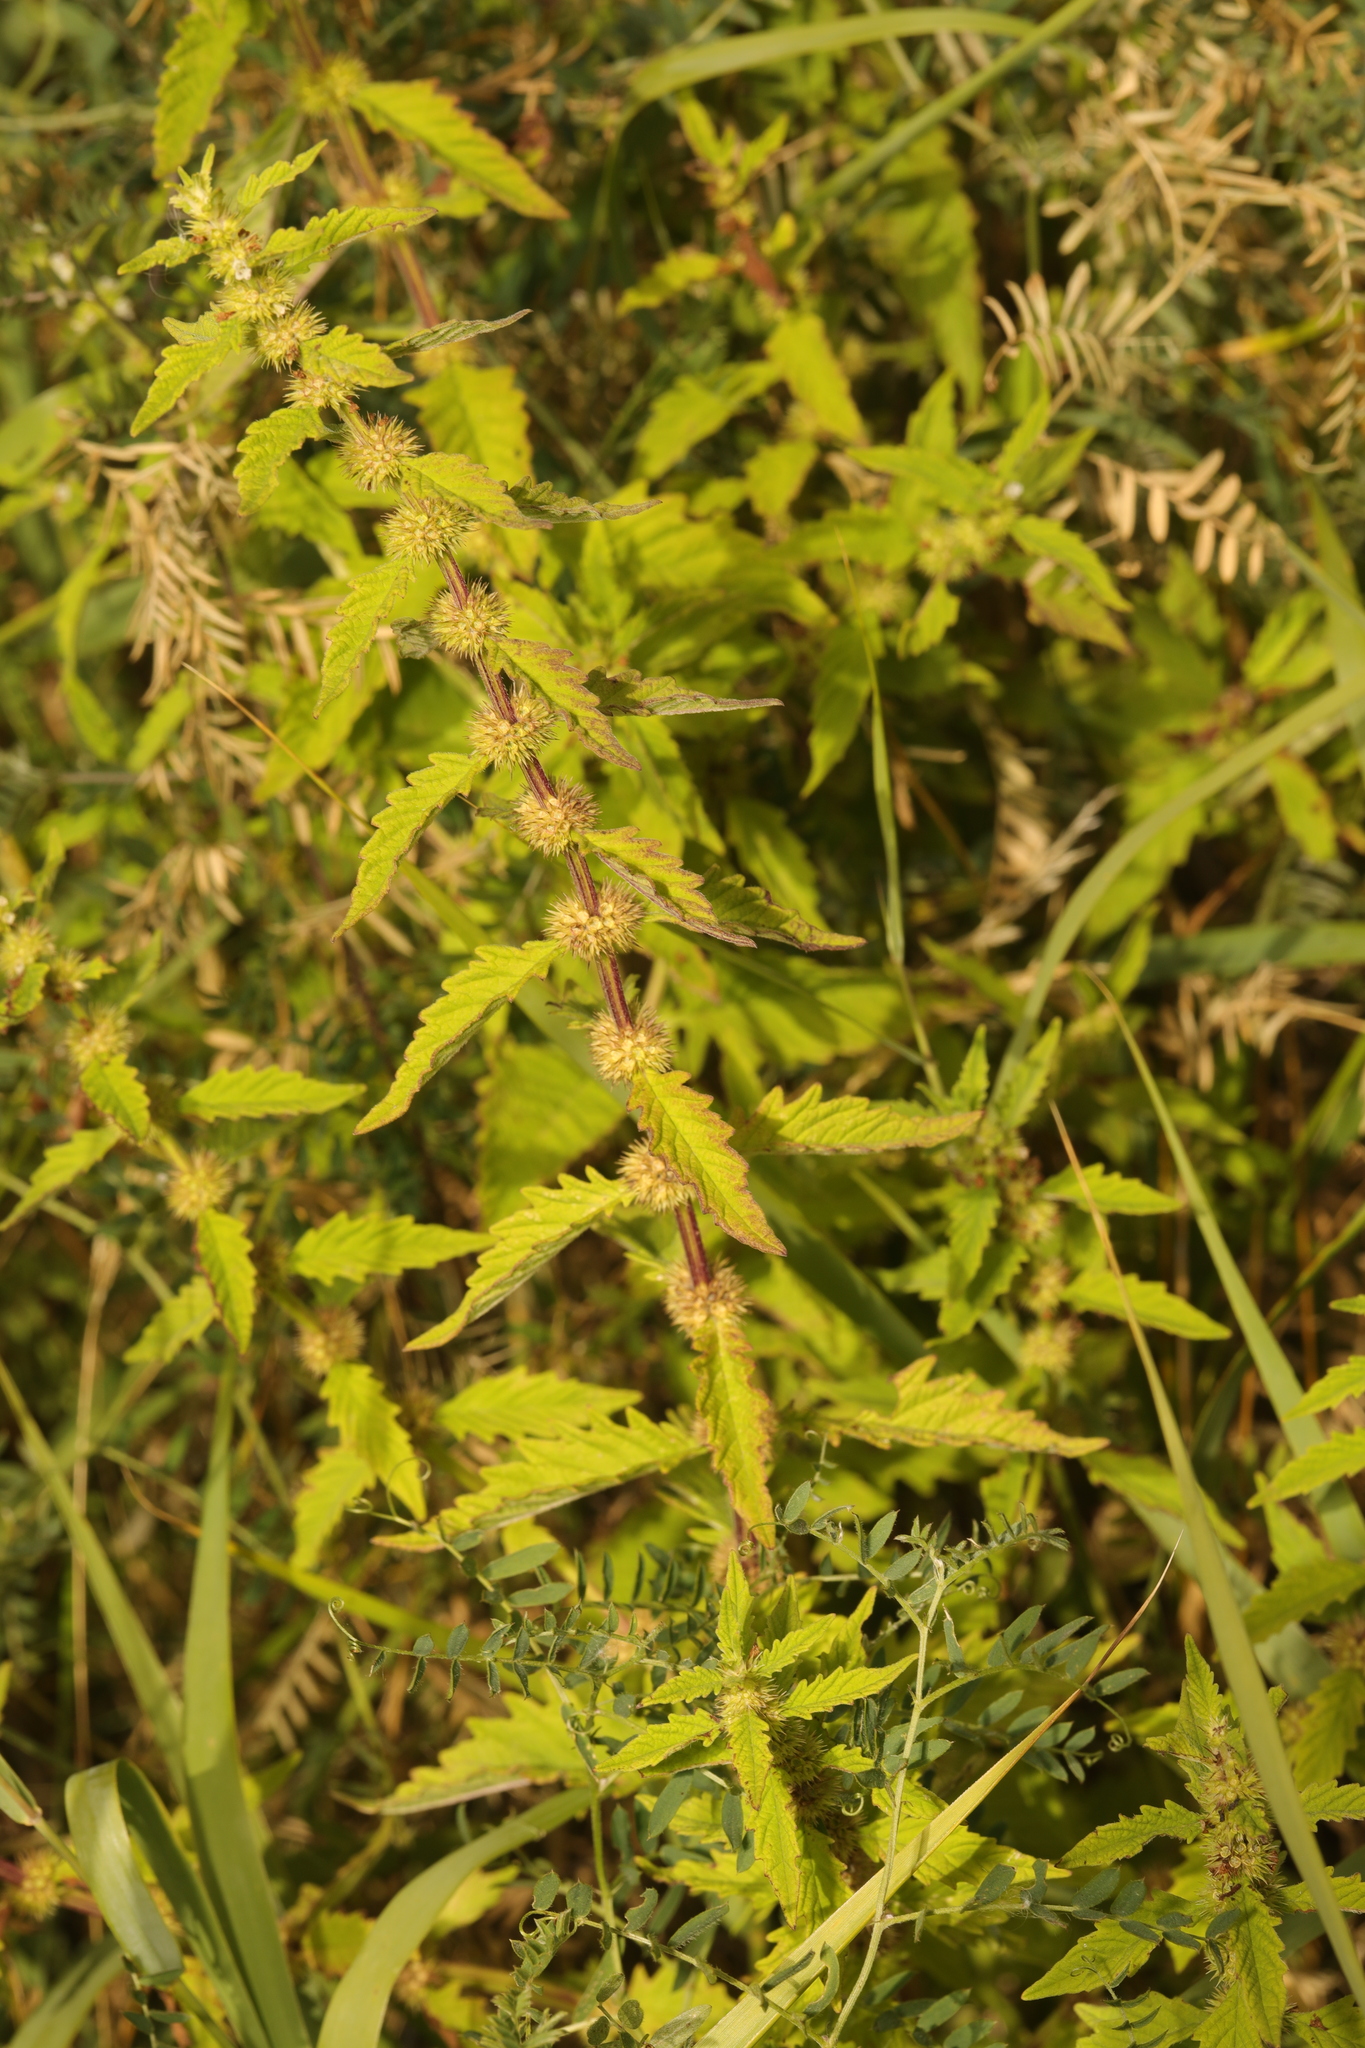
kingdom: Plantae
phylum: Tracheophyta
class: Magnoliopsida
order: Lamiales
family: Lamiaceae
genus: Lycopus
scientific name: Lycopus europaeus
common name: European bugleweed
